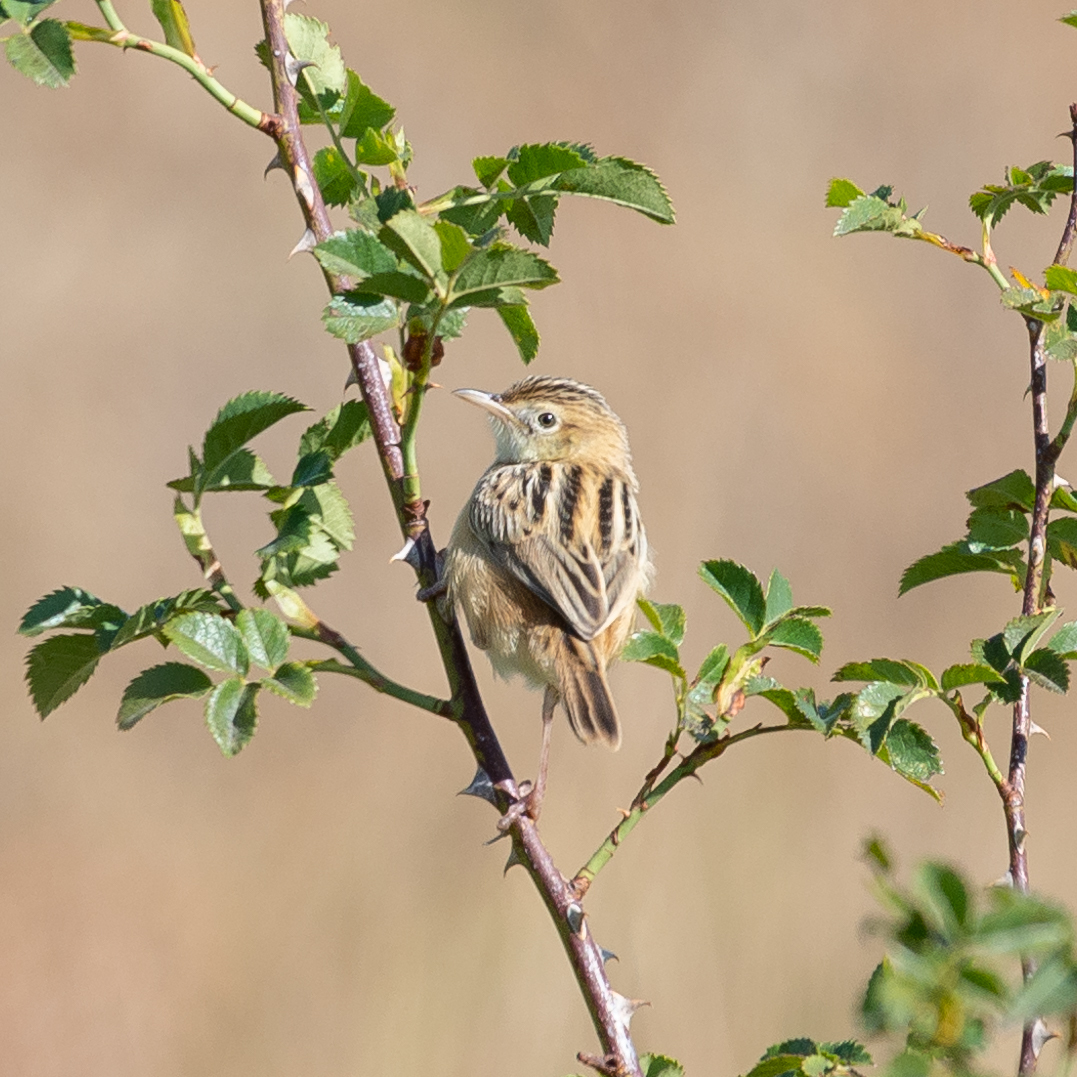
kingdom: Animalia
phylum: Chordata
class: Aves
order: Passeriformes
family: Cisticolidae
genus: Cisticola
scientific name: Cisticola juncidis
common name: Zitting cisticola
